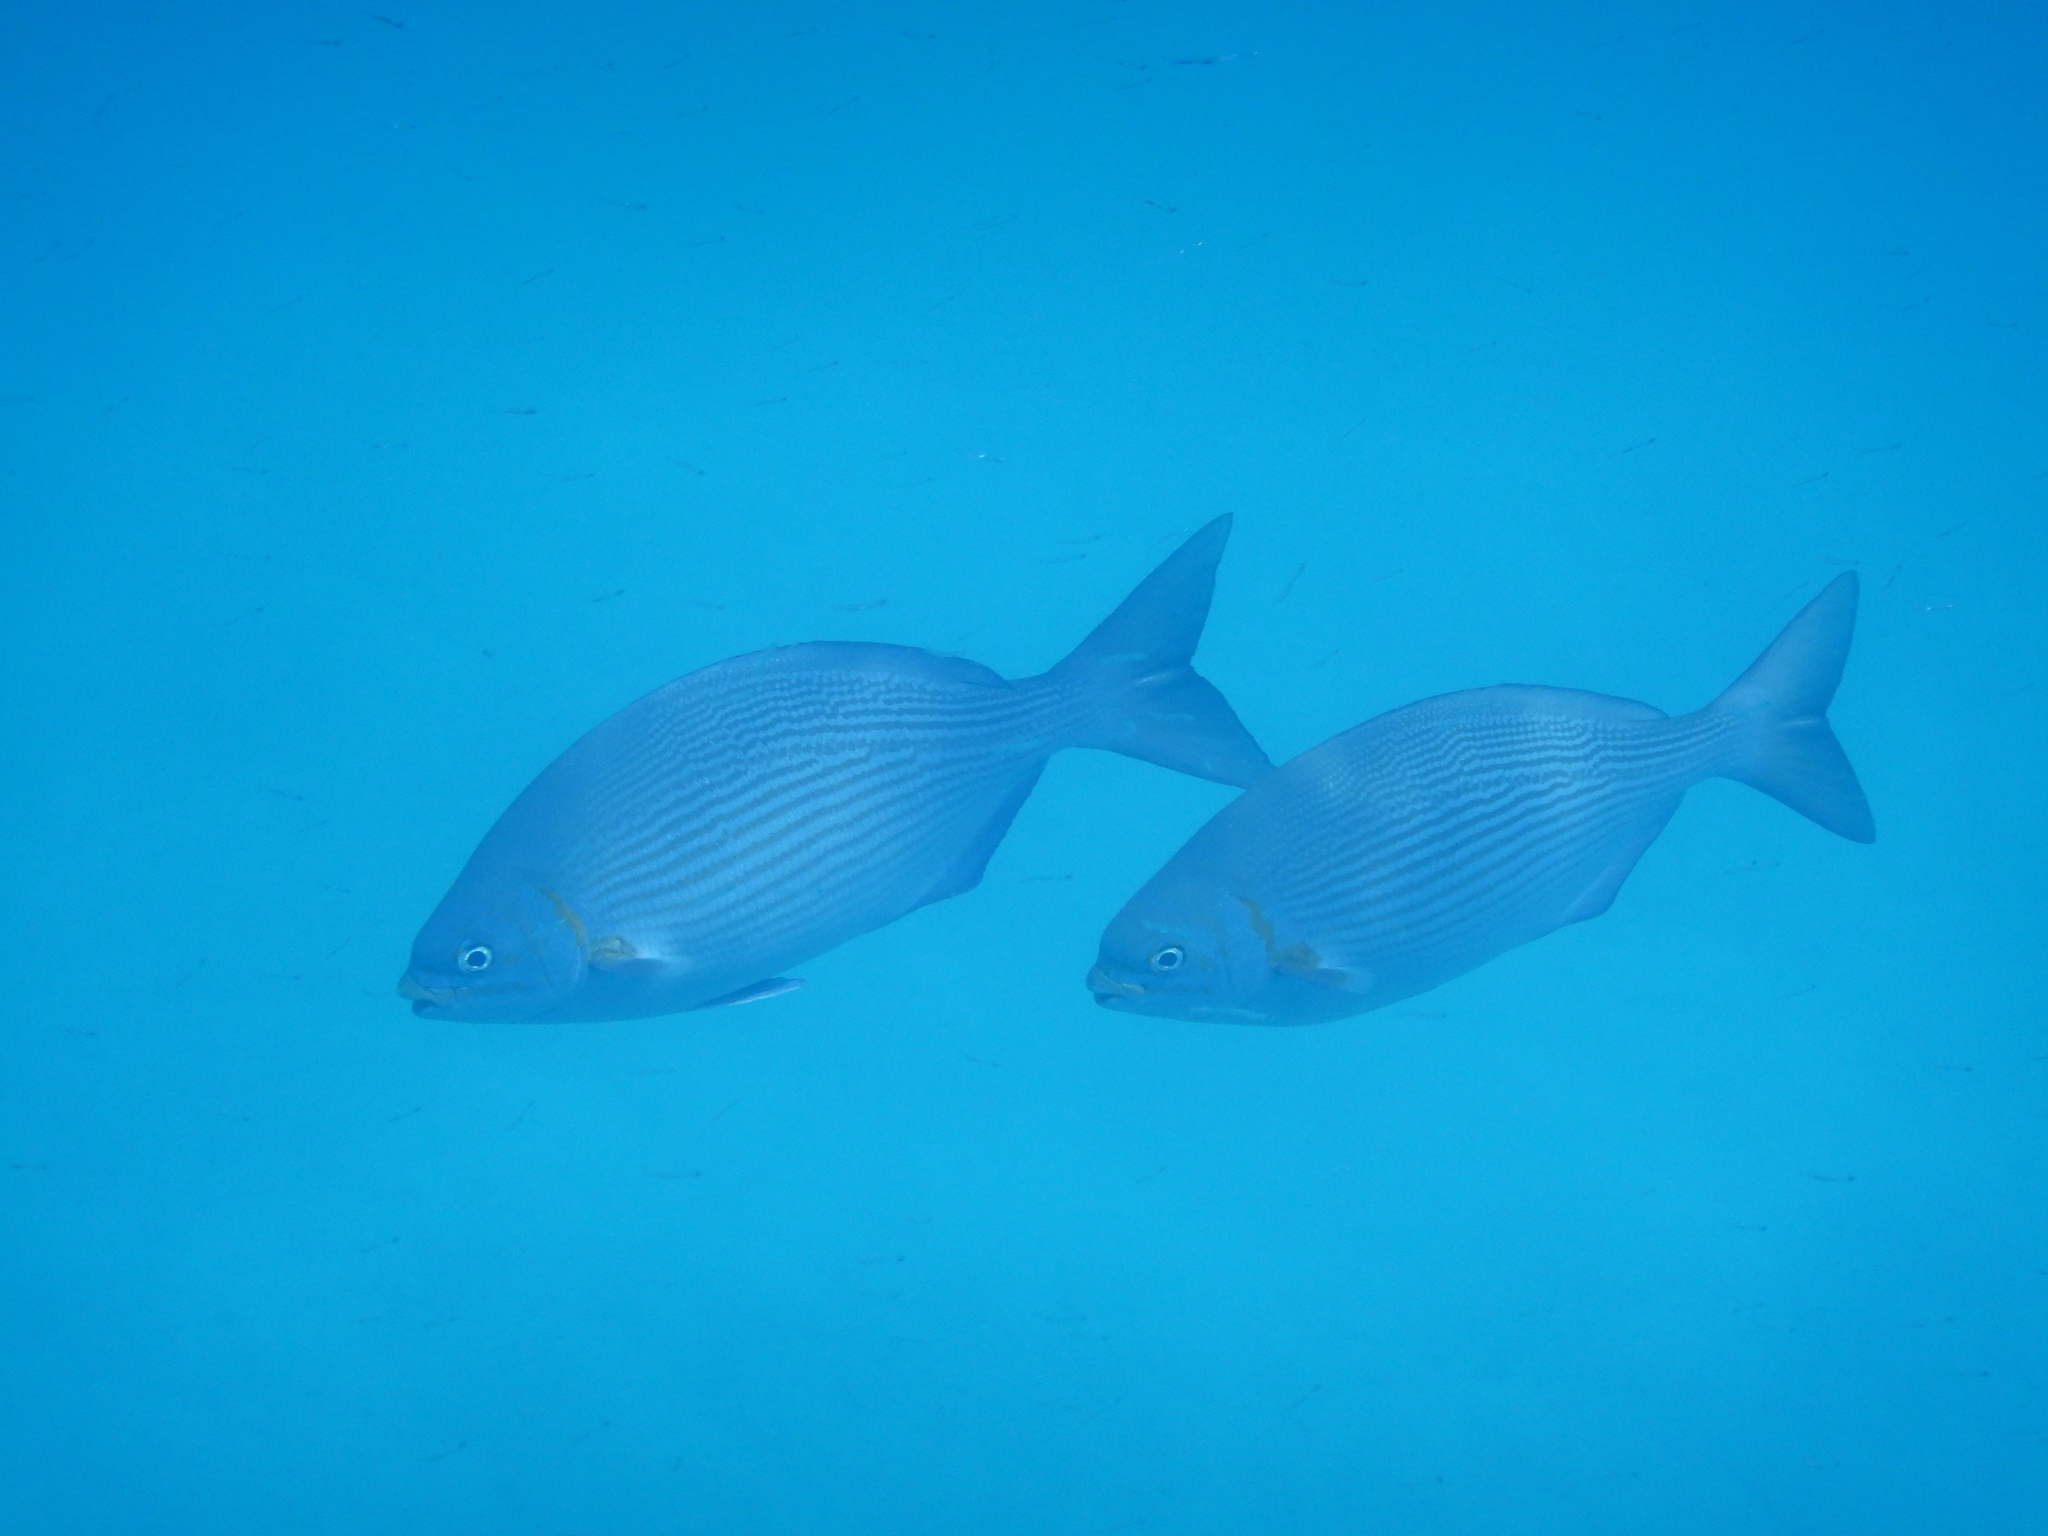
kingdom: Animalia
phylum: Chordata
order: Perciformes
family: Kyphosidae
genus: Kyphosus
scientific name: Kyphosus vaigiensis
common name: Brassy chub
